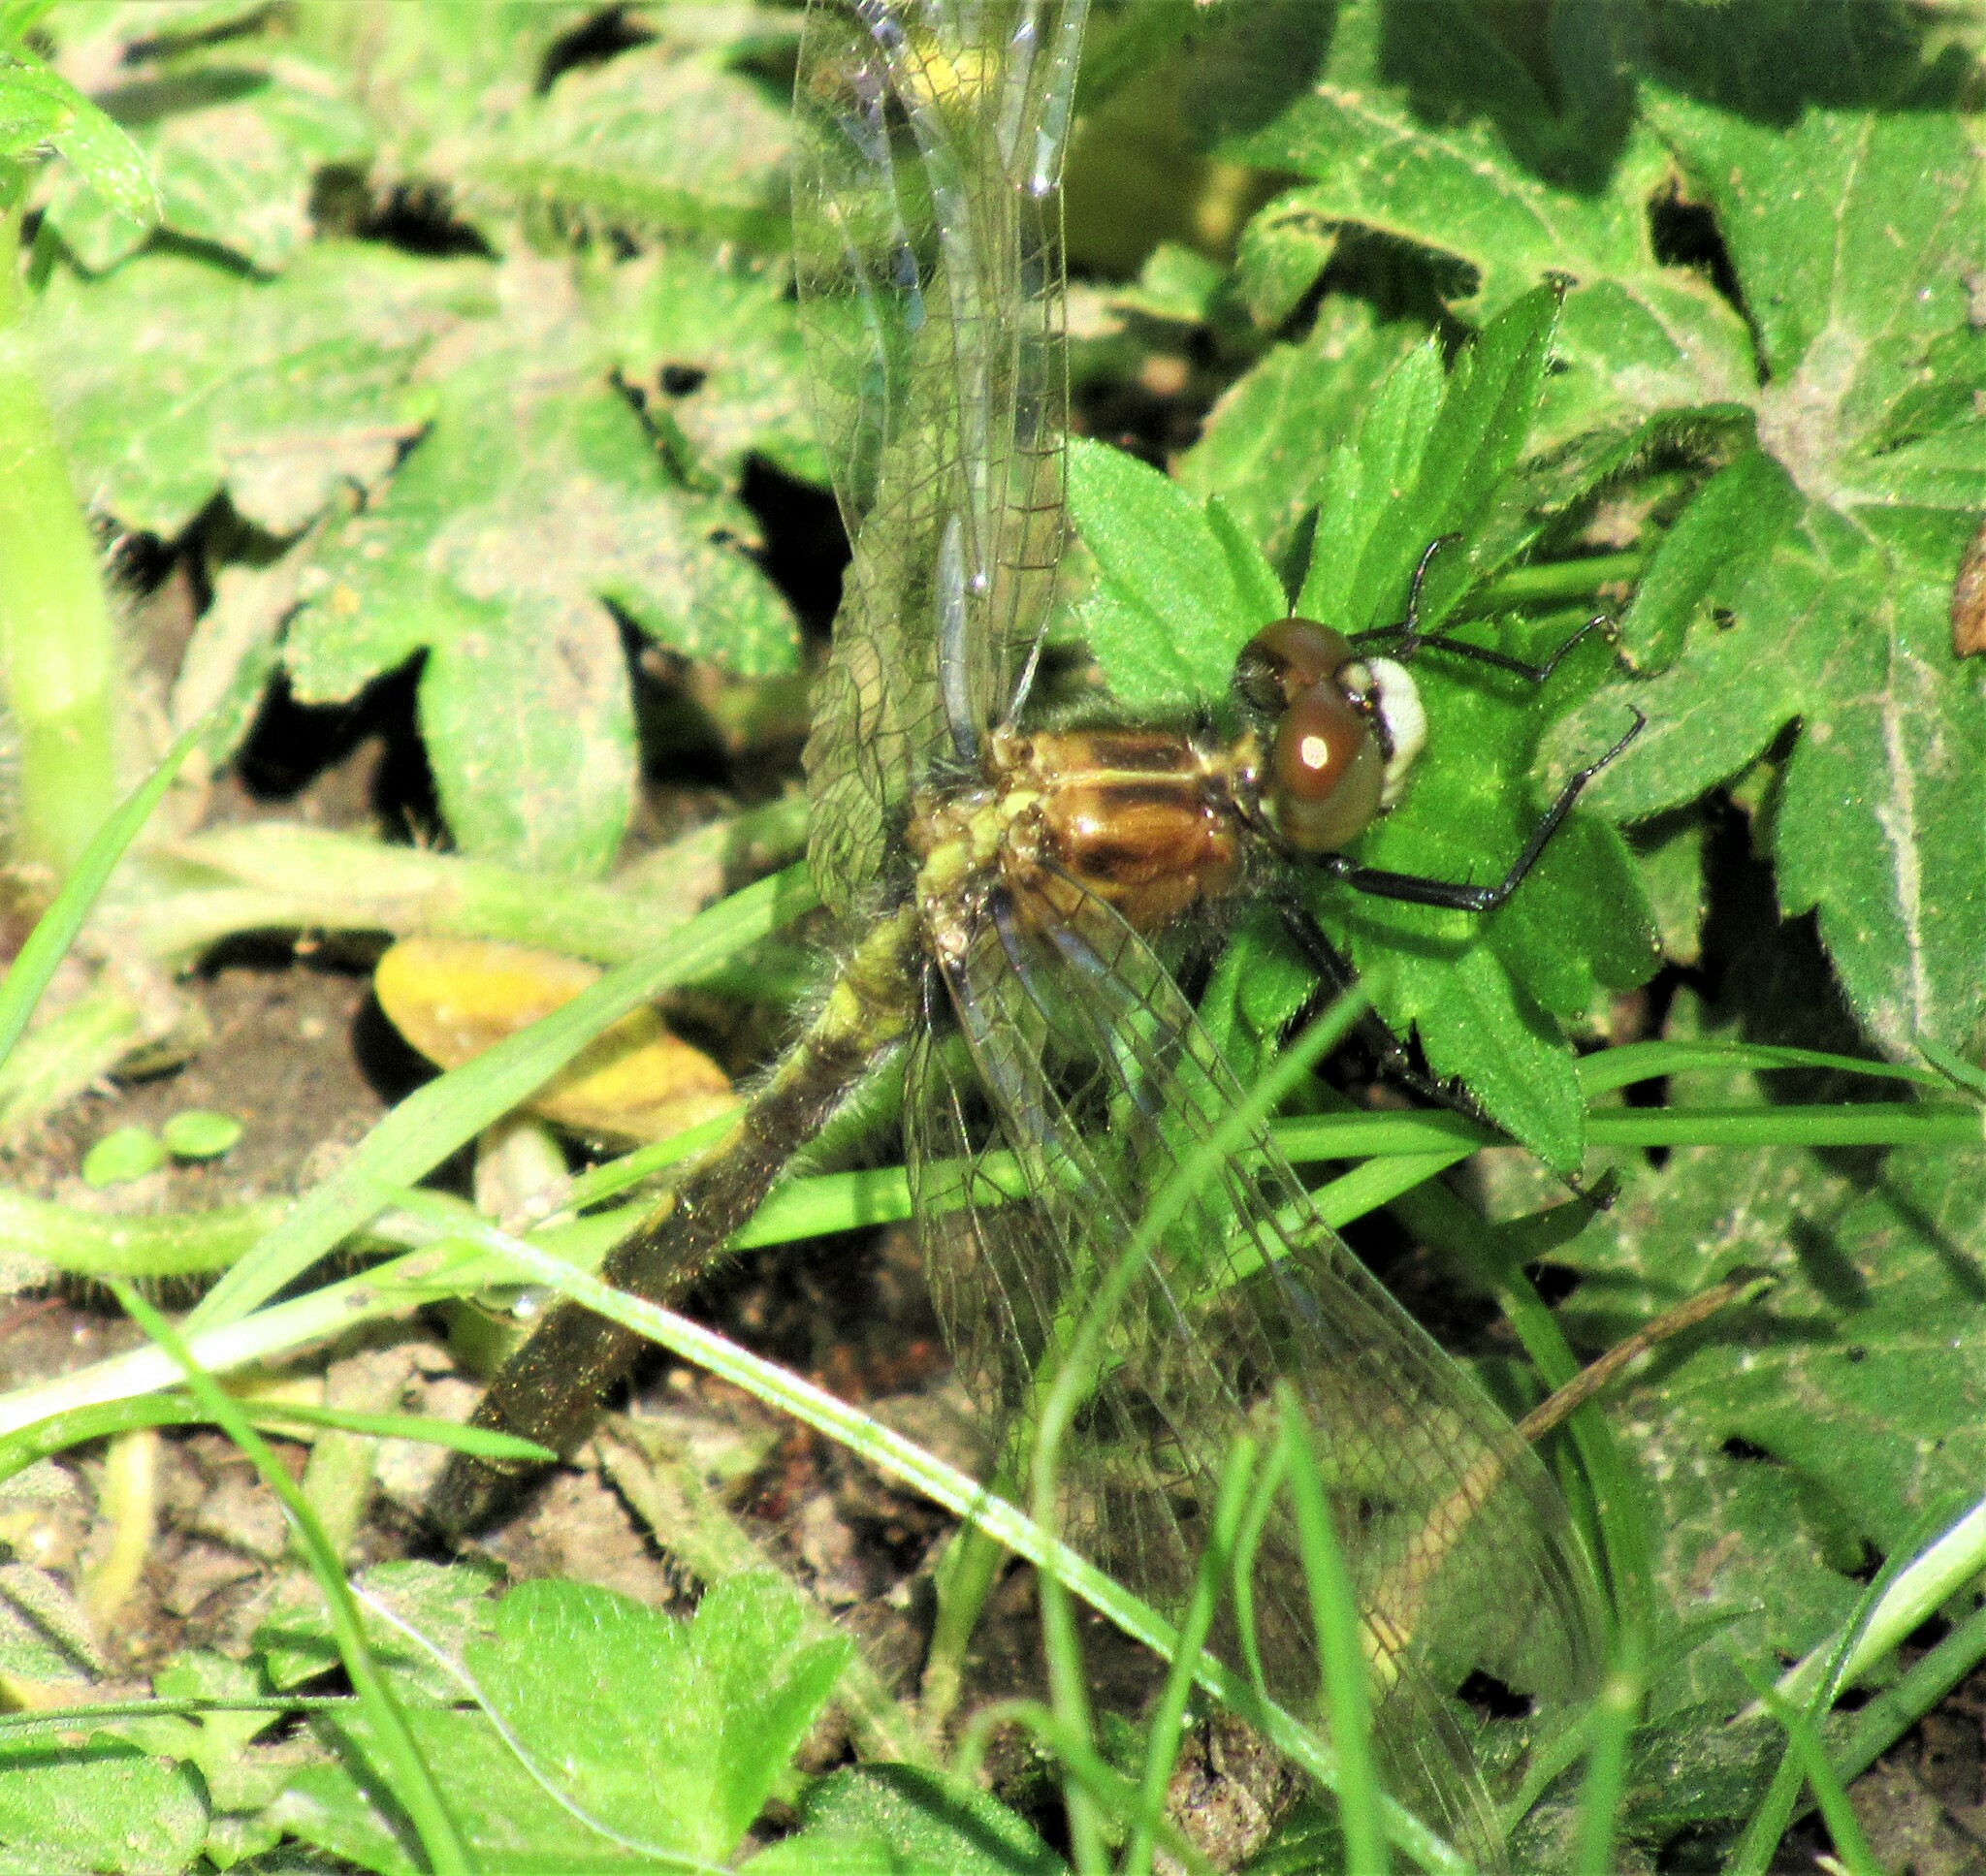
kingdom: Animalia
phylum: Arthropoda
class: Insecta
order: Odonata
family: Libellulidae
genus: Leucorrhinia
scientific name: Leucorrhinia intacta
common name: Dot-tailed whiteface
